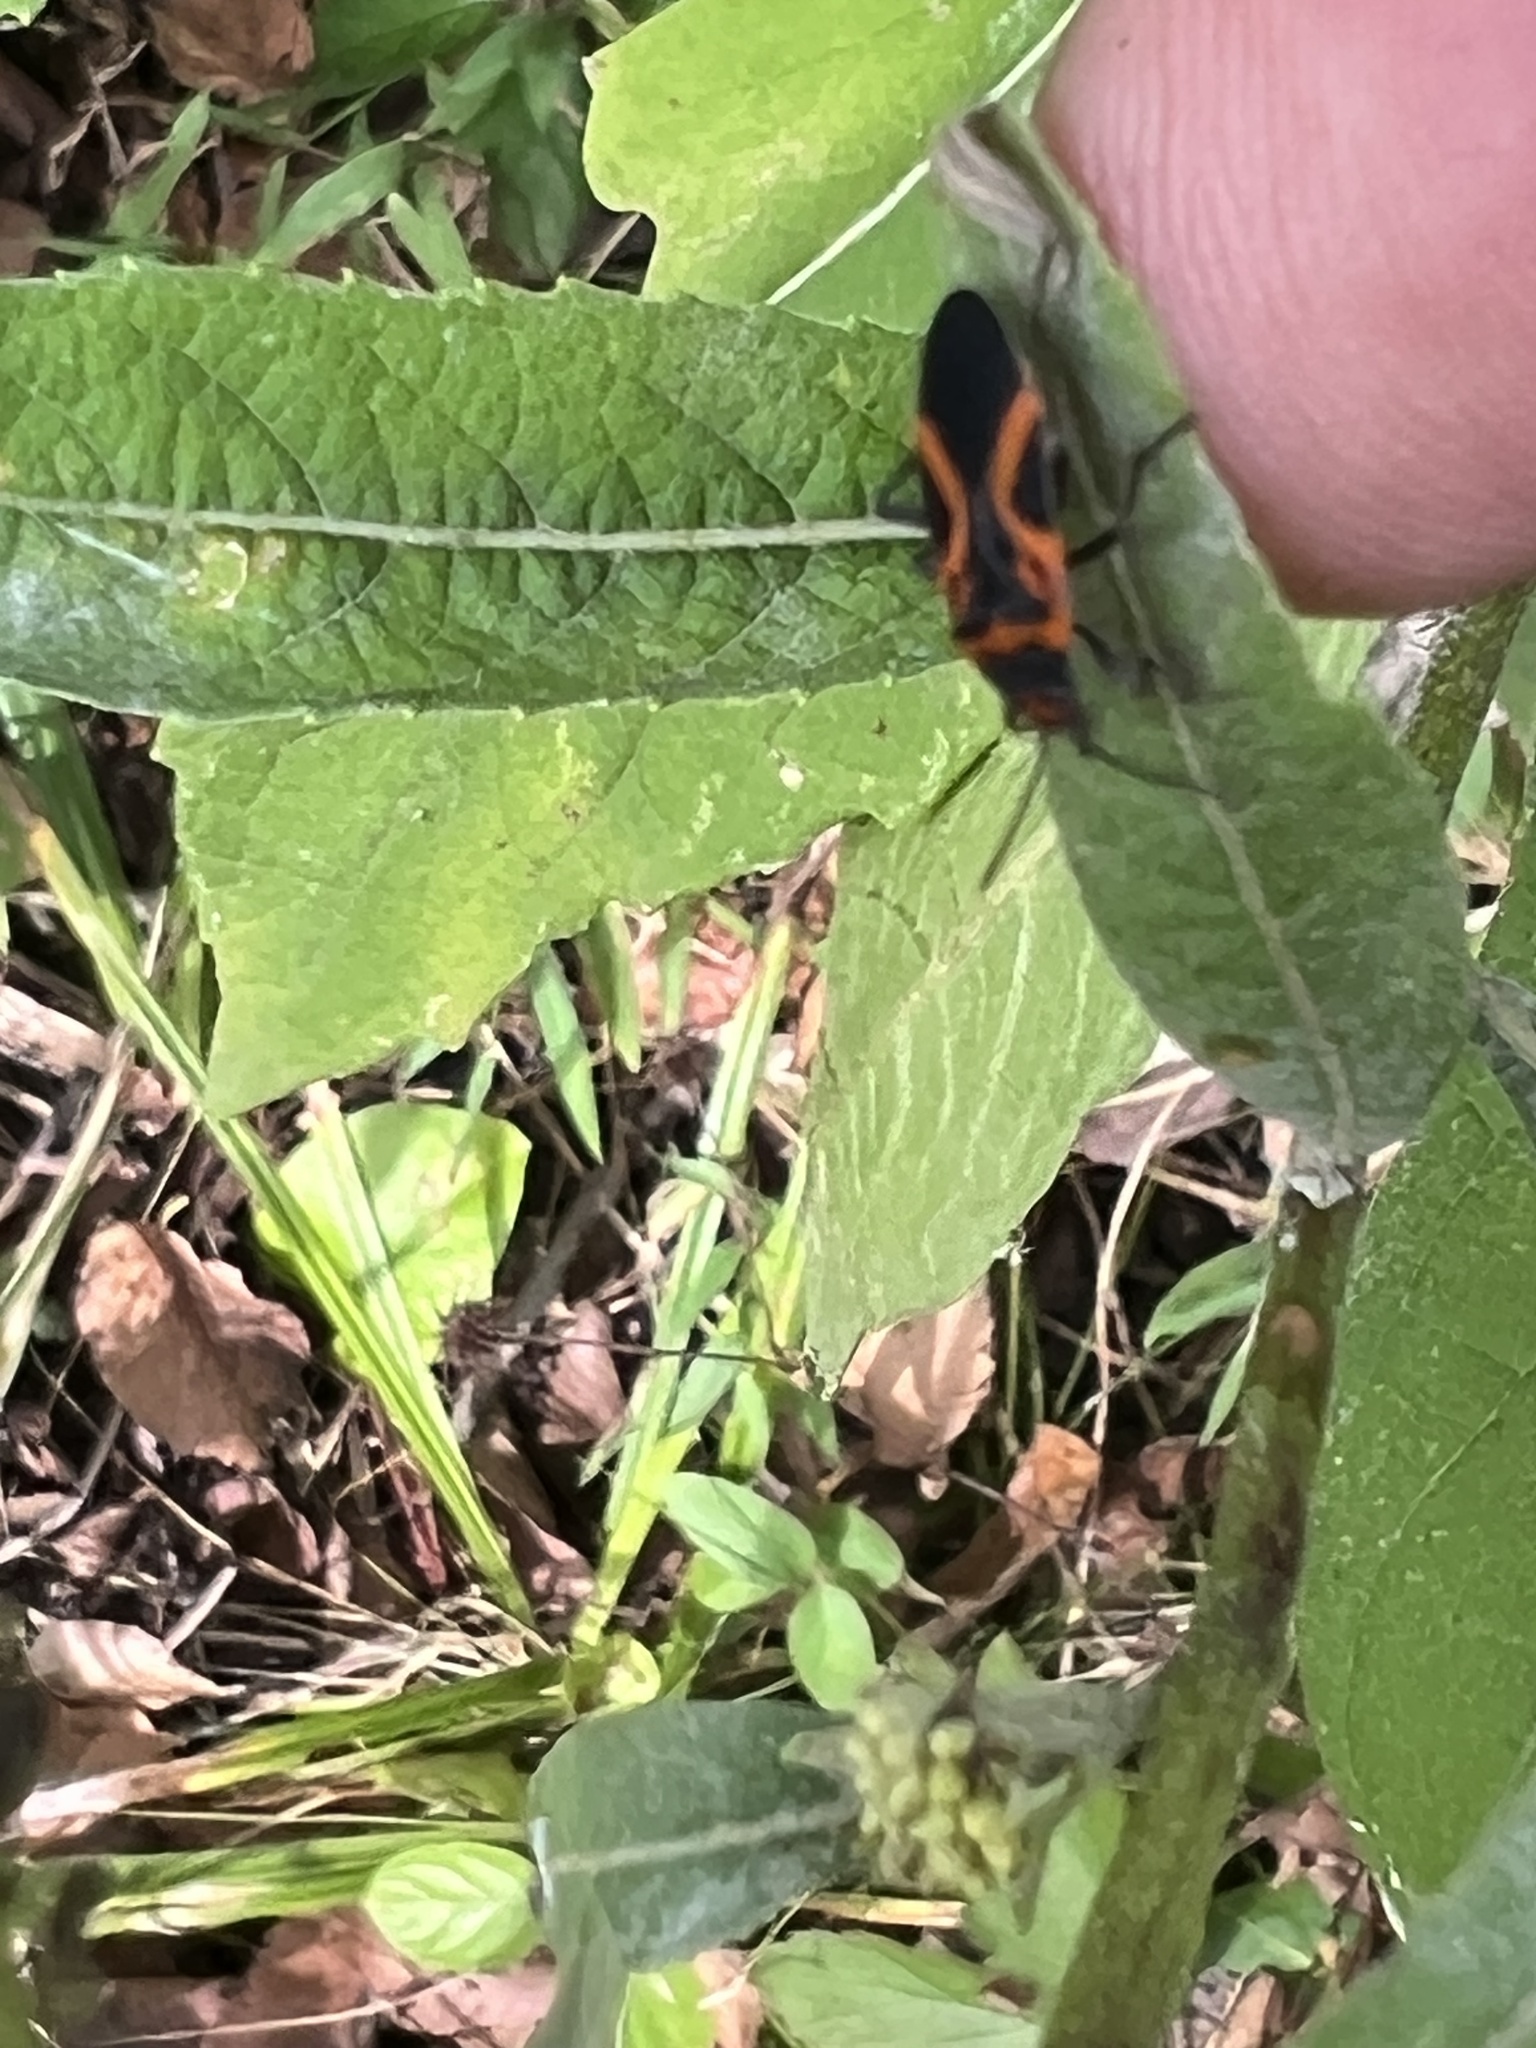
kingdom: Animalia
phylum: Arthropoda
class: Insecta
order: Hemiptera
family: Lygaeidae
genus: Lygaeus
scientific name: Lygaeus turcicus
